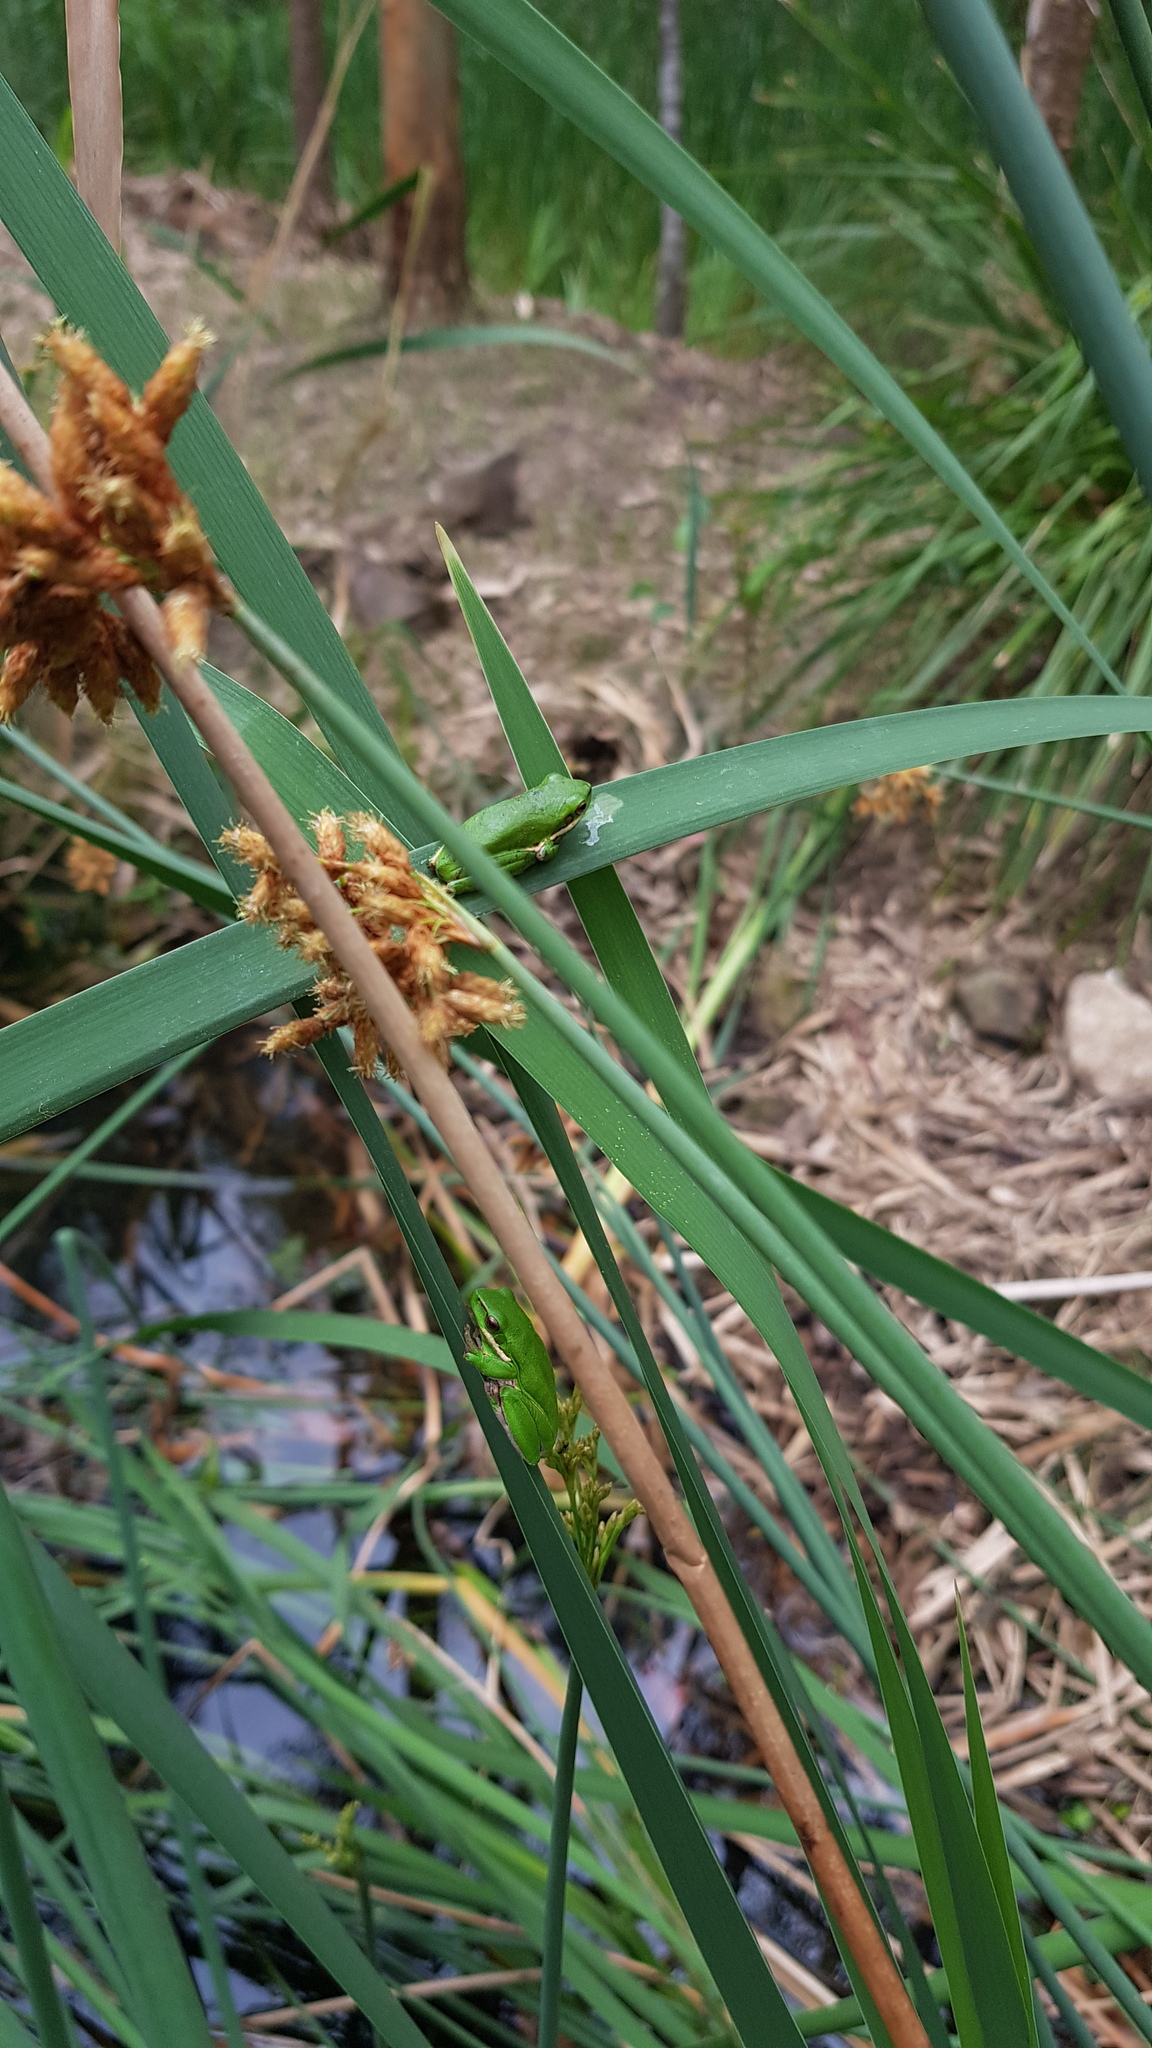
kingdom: Animalia
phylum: Chordata
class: Amphibia
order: Anura
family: Pelodryadidae
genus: Litoria
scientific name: Litoria fallax
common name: Eastern dwarf treefrog
